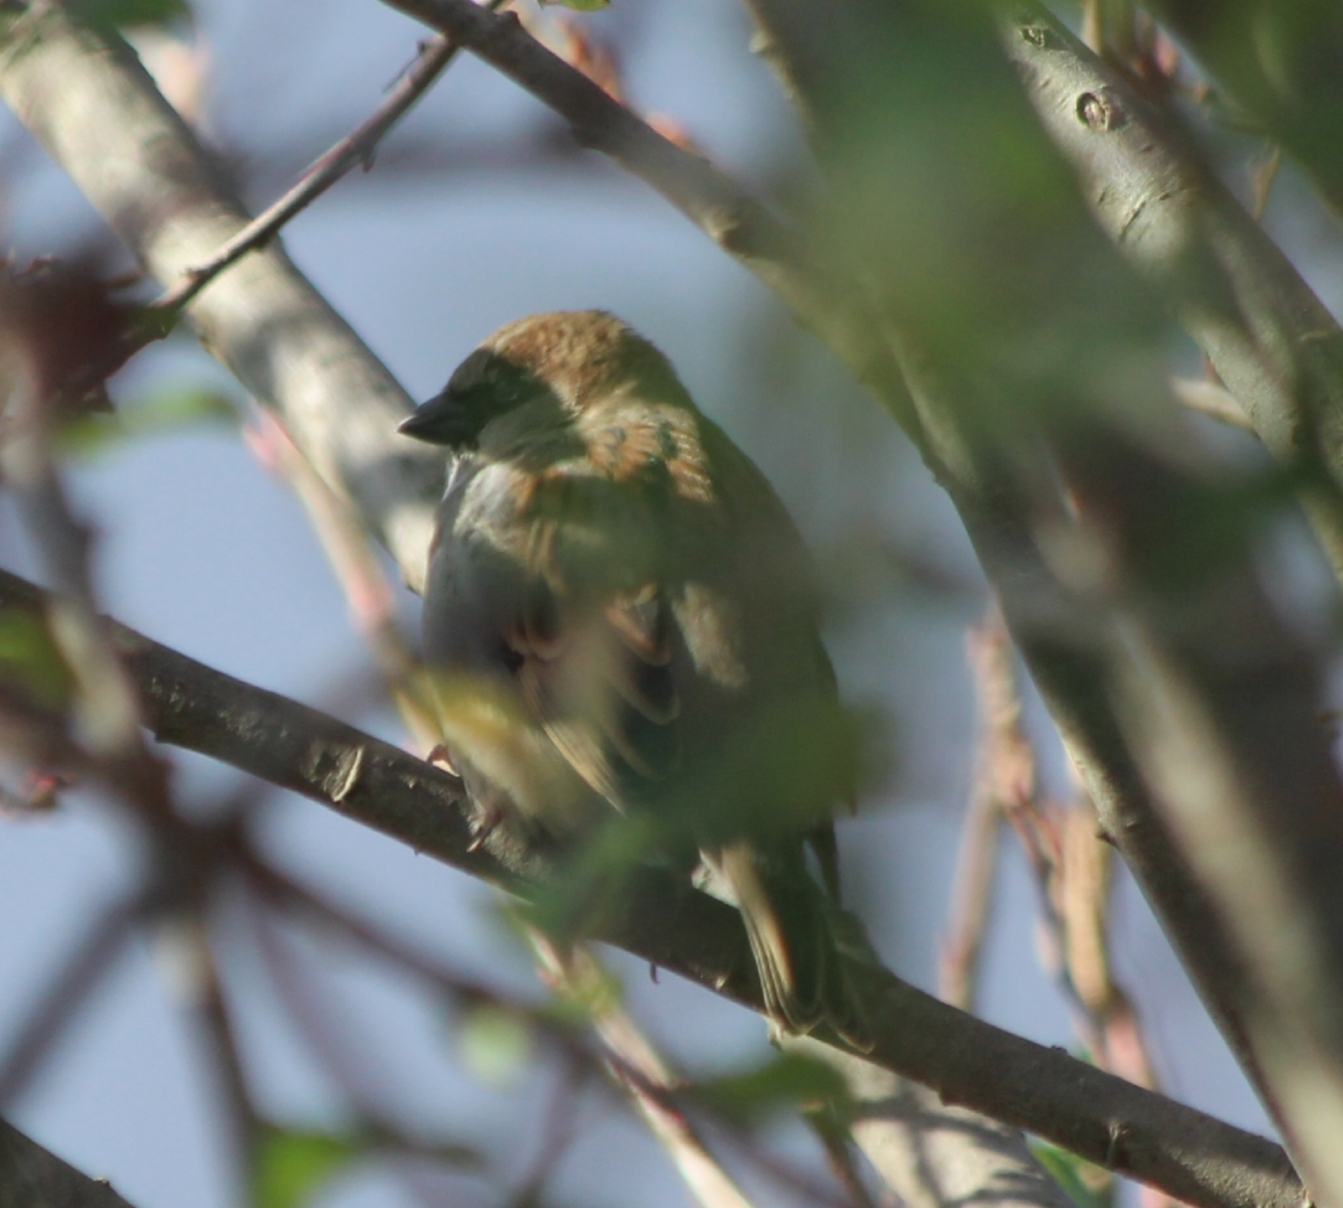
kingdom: Animalia
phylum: Chordata
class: Aves
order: Passeriformes
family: Passeridae
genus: Passer
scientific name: Passer domesticus
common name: House sparrow
